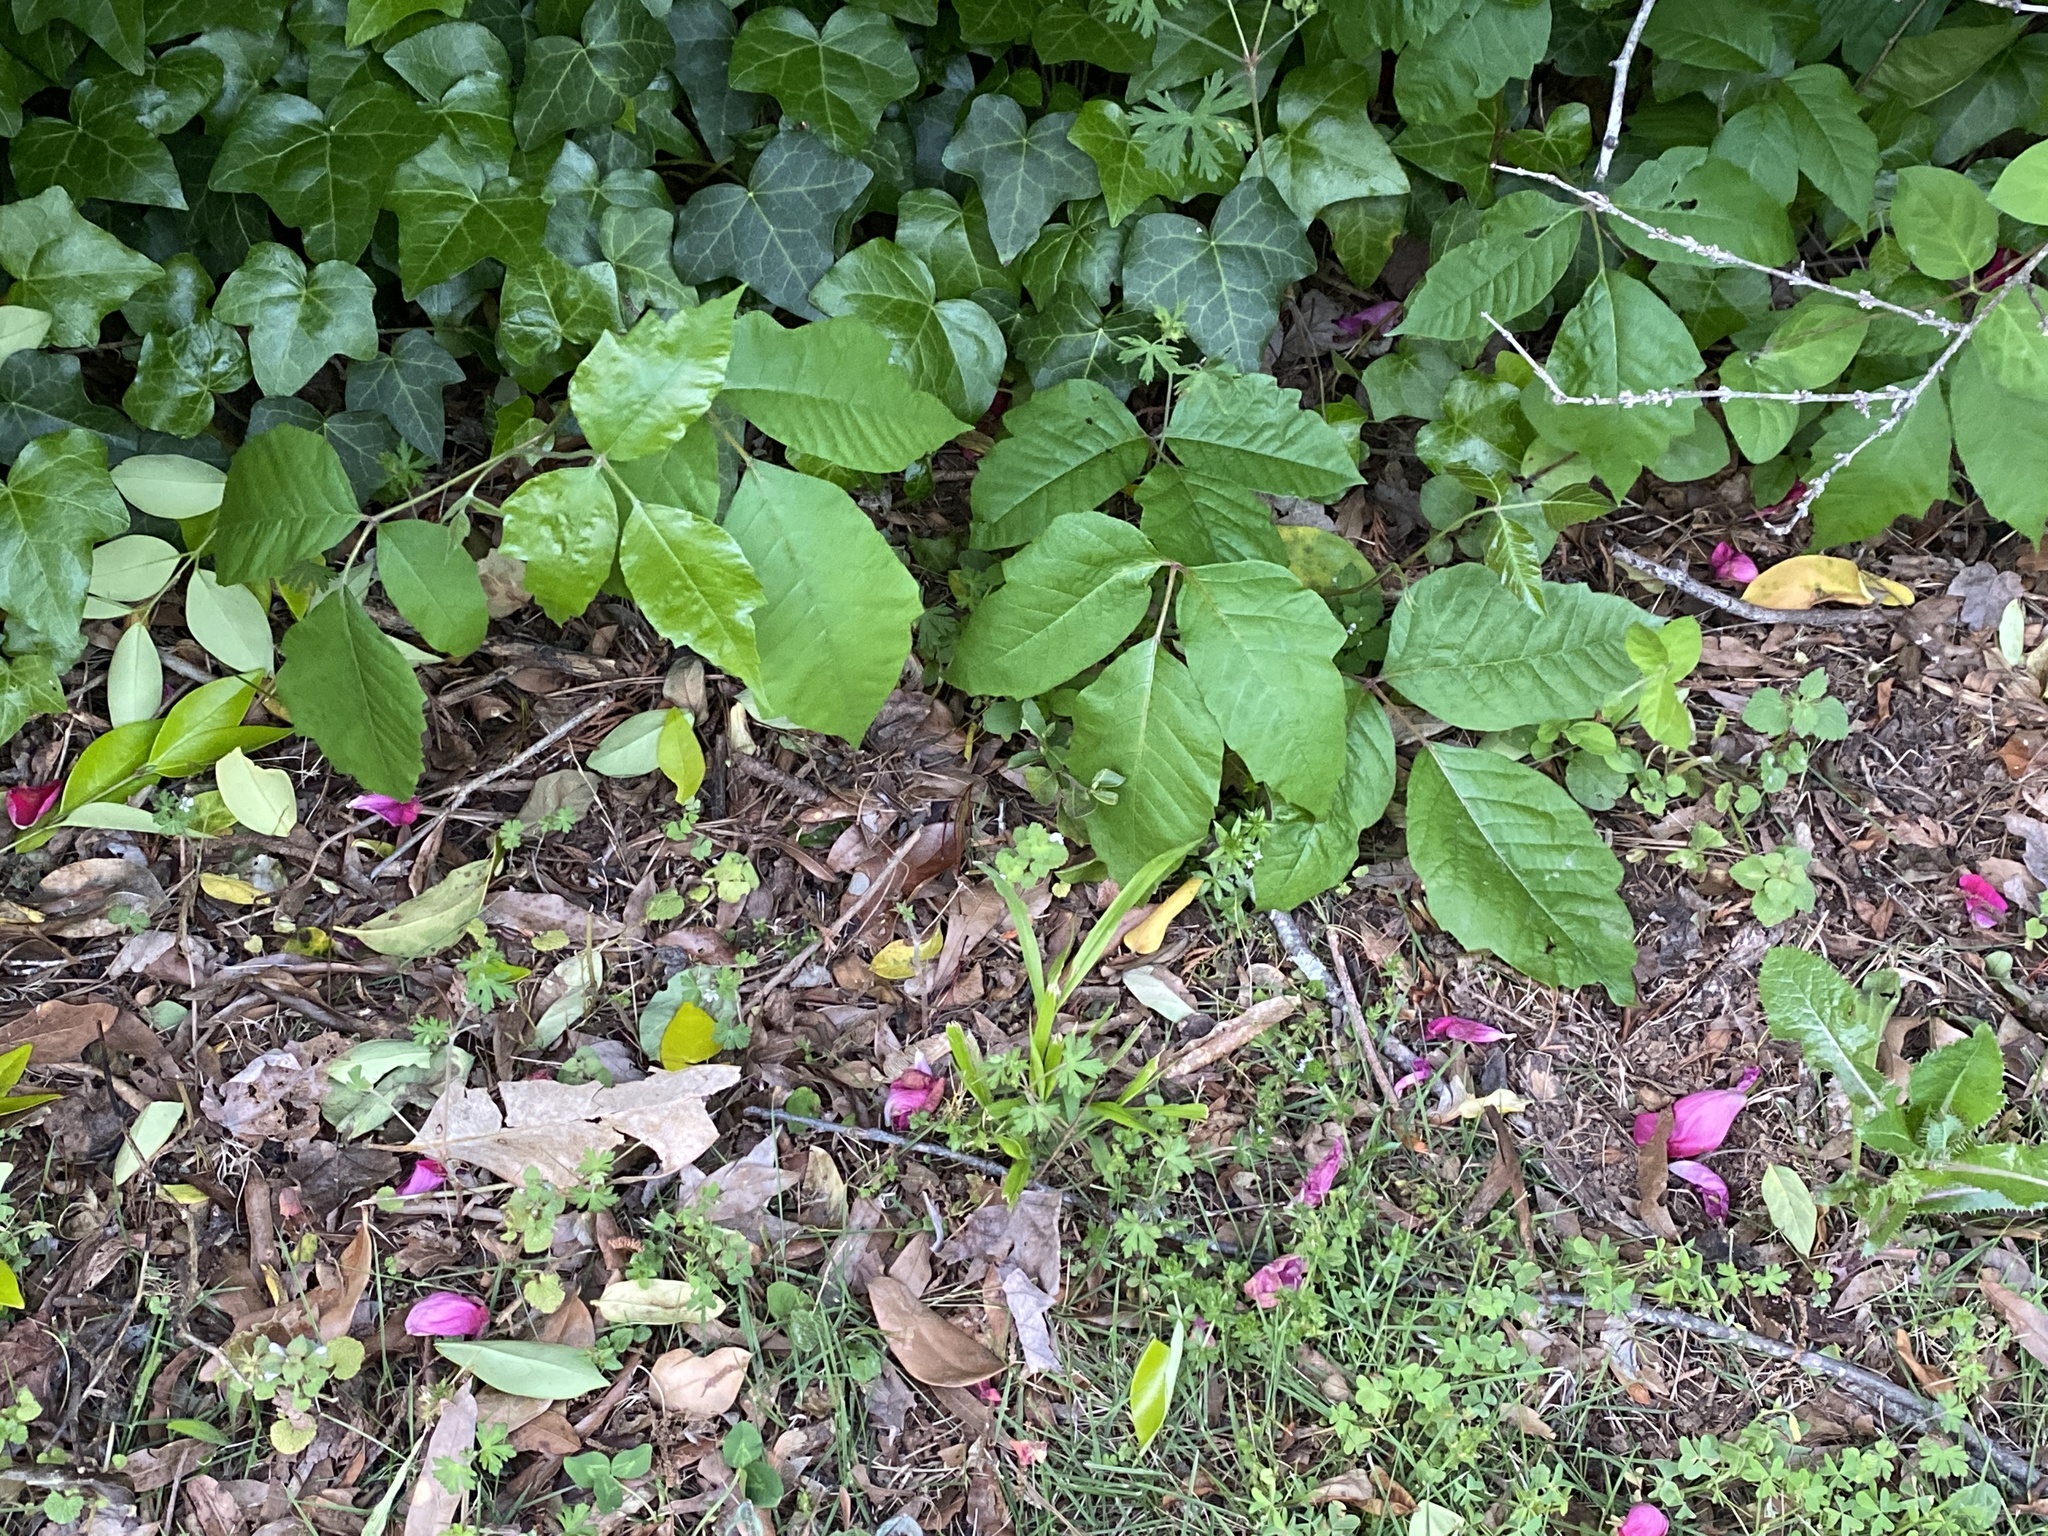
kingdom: Plantae
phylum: Tracheophyta
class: Magnoliopsida
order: Sapindales
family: Anacardiaceae
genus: Toxicodendron
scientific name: Toxicodendron radicans
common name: Poison ivy
